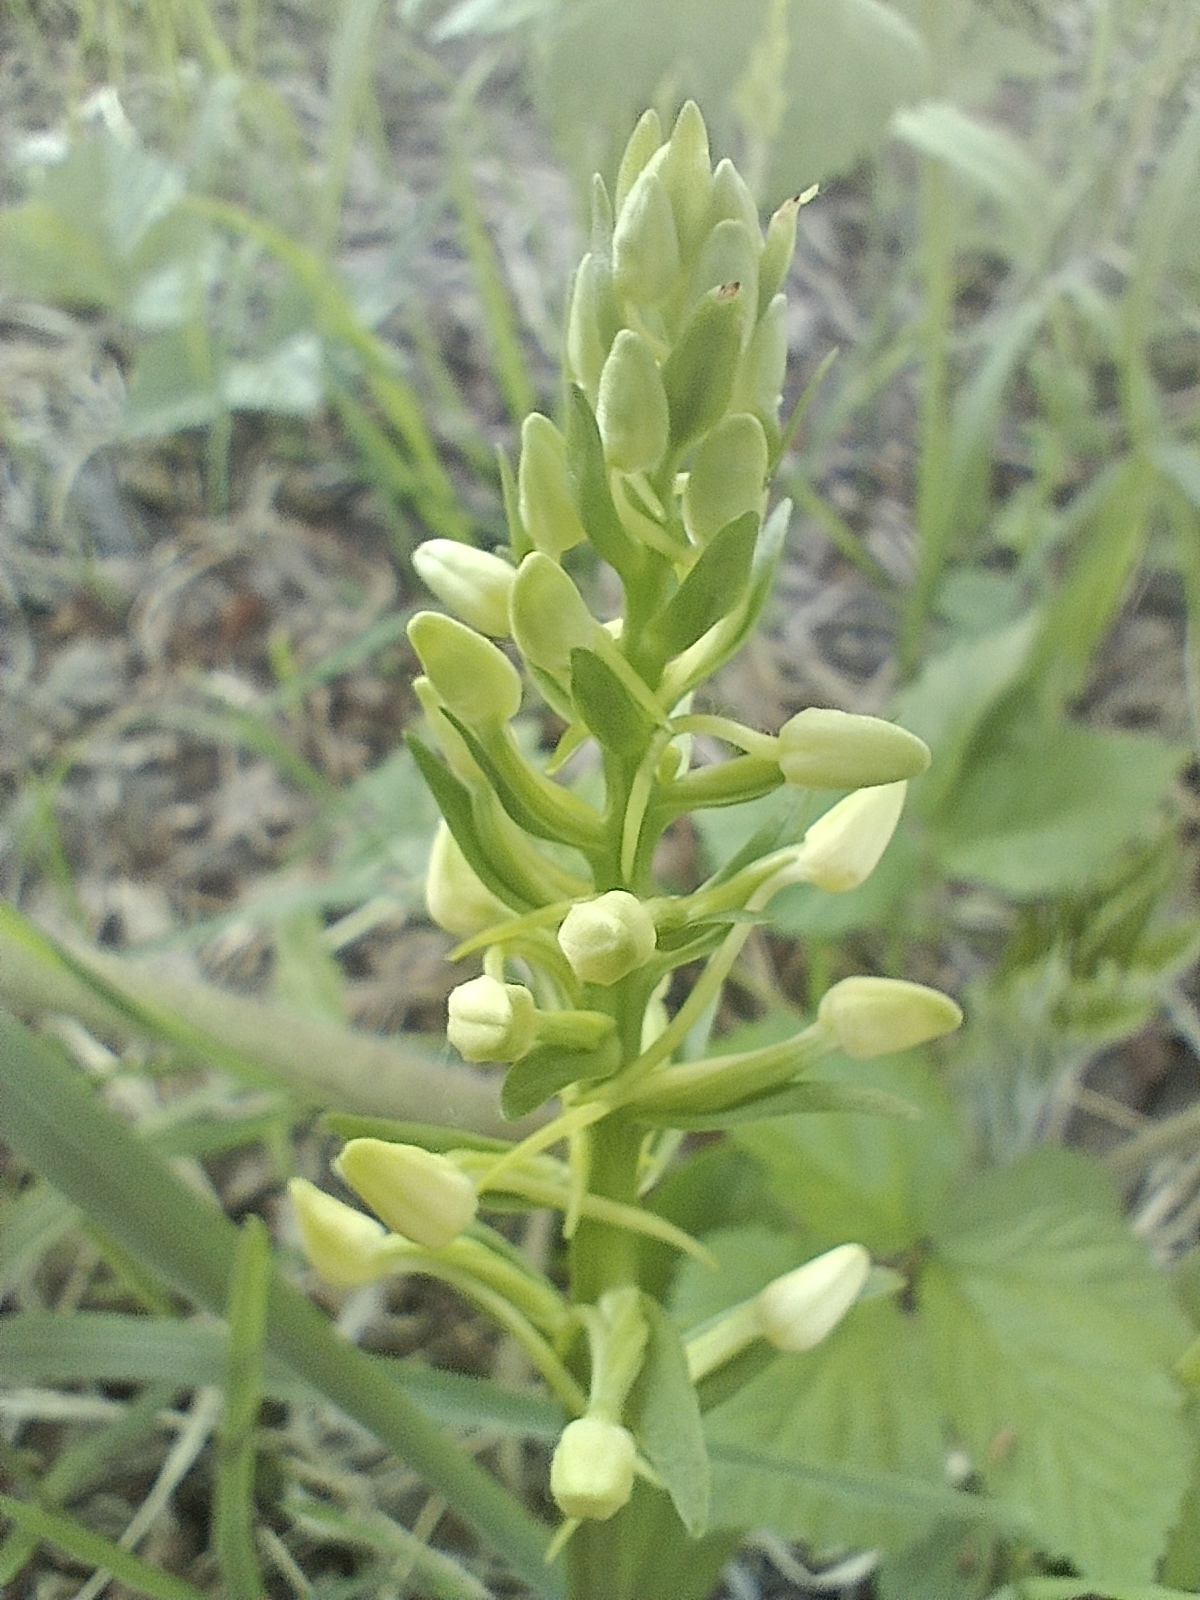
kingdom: Plantae
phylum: Tracheophyta
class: Liliopsida
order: Asparagales
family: Orchidaceae
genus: Platanthera
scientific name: Platanthera bifolia
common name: Lesser butterfly-orchid
